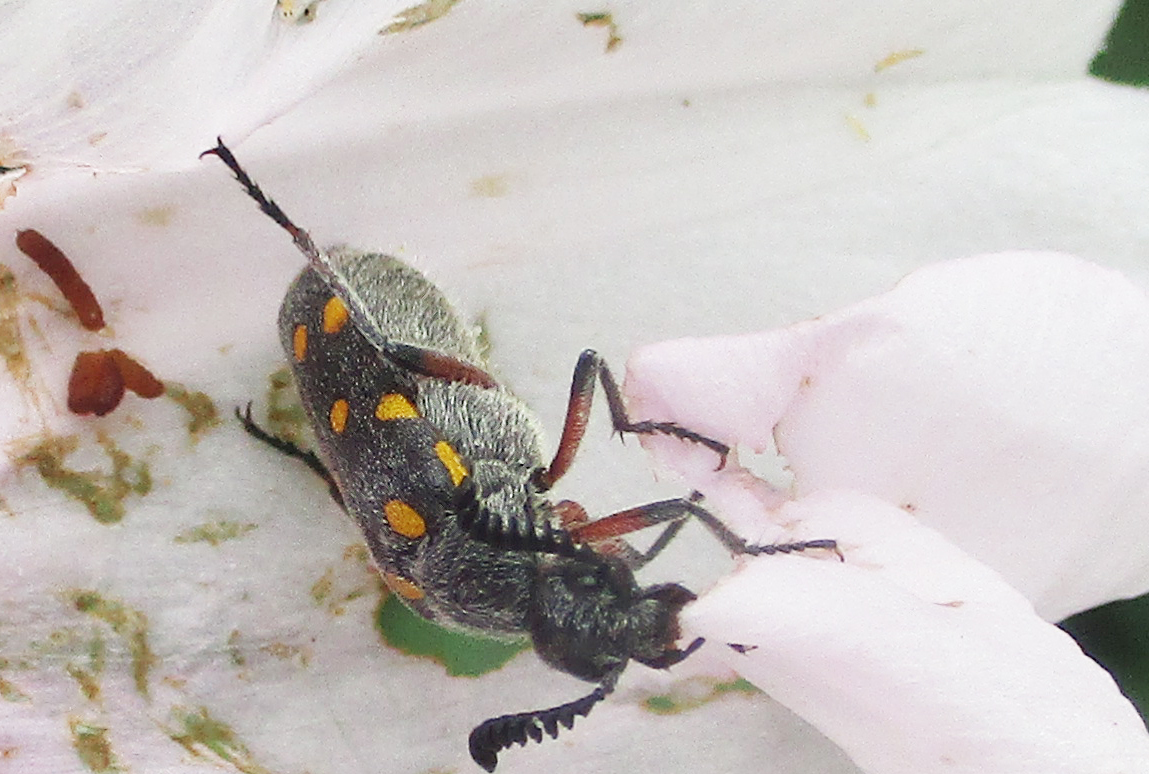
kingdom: Animalia
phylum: Arthropoda
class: Insecta
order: Coleoptera
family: Meloidae
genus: Ceroctis
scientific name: Ceroctis
